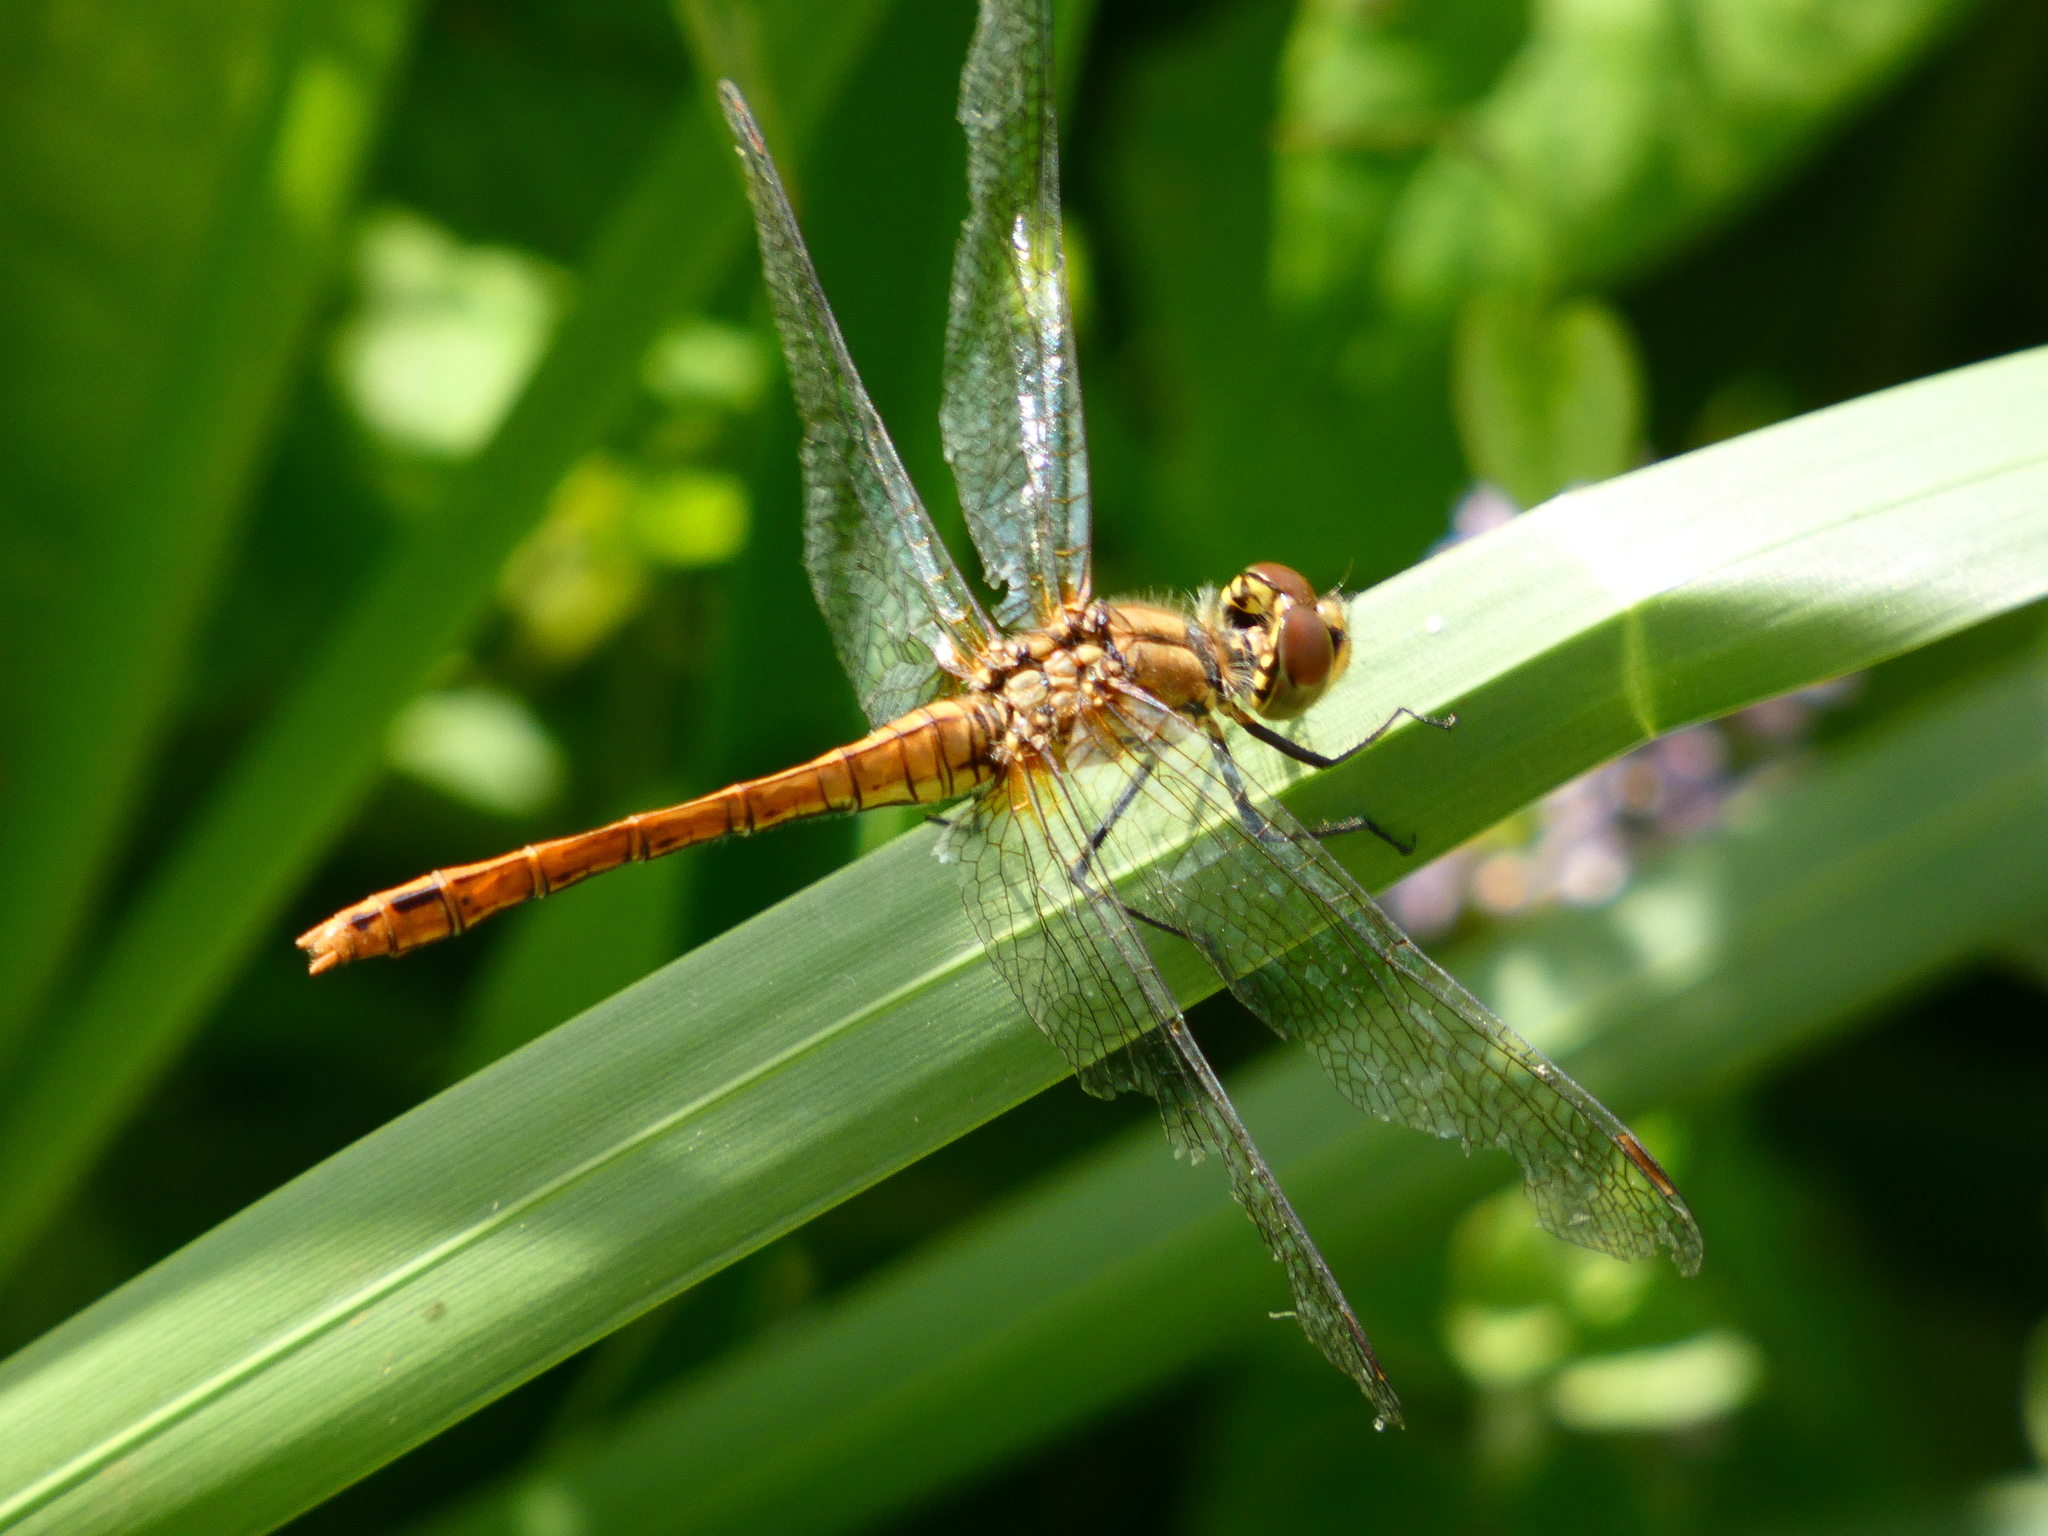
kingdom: Animalia
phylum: Arthropoda
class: Insecta
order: Odonata
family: Libellulidae
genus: Sympetrum
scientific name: Sympetrum sanguineum
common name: Ruddy darter
